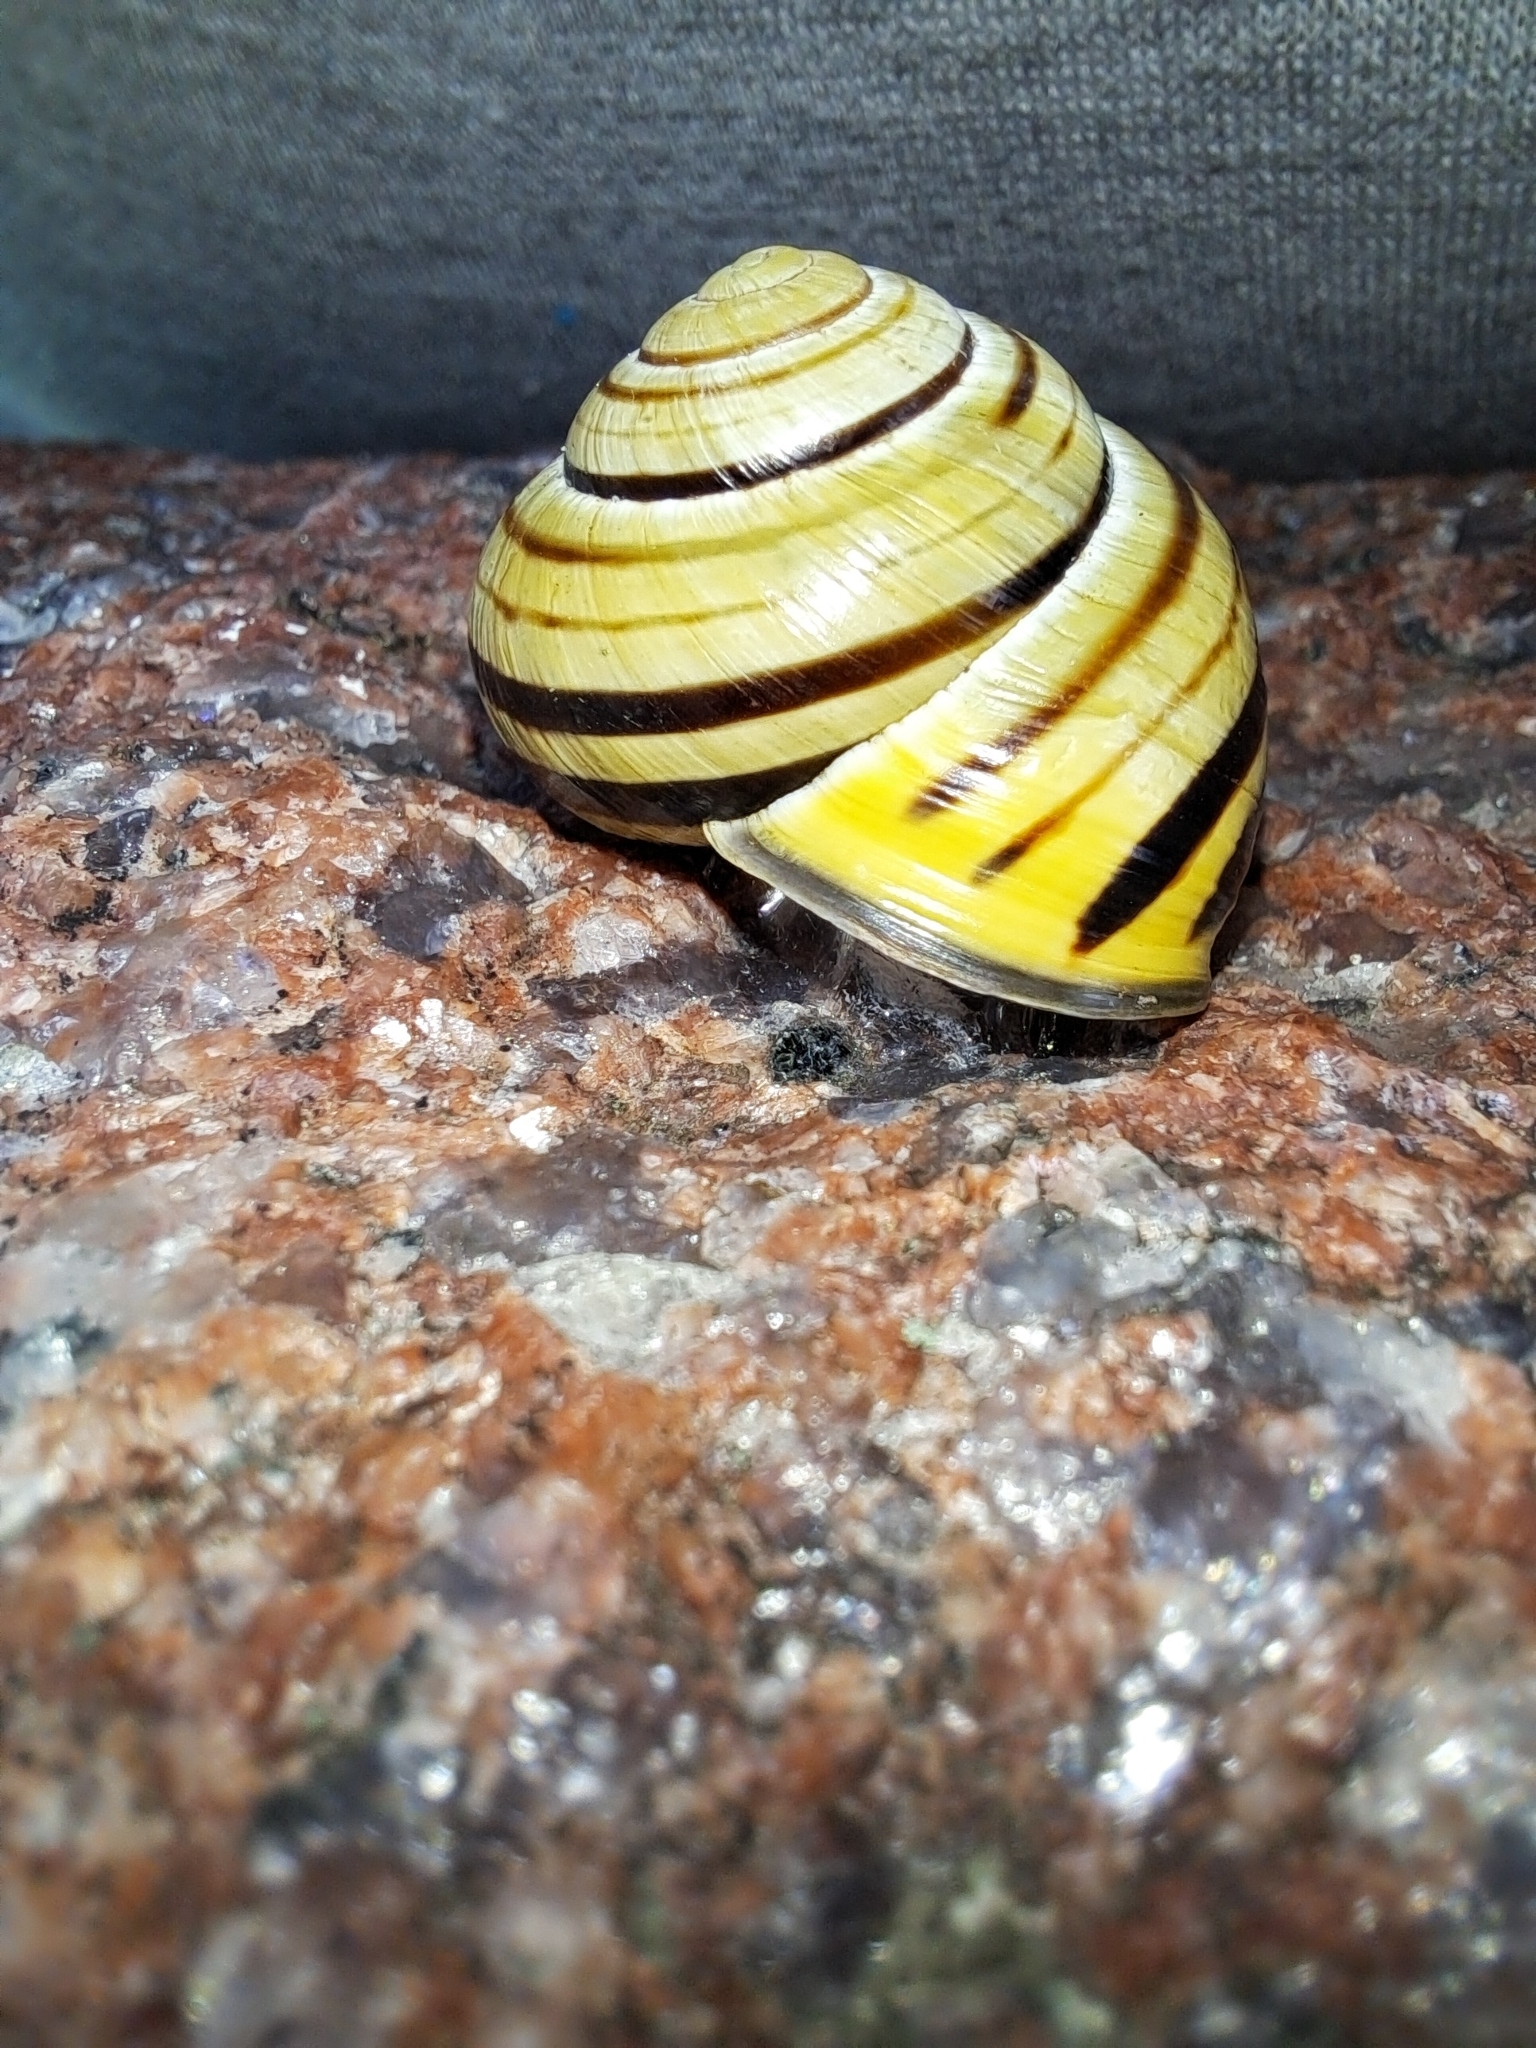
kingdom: Animalia
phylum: Mollusca
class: Gastropoda
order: Stylommatophora
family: Helicidae
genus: Cepaea
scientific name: Cepaea nemoralis
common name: Grovesnail
